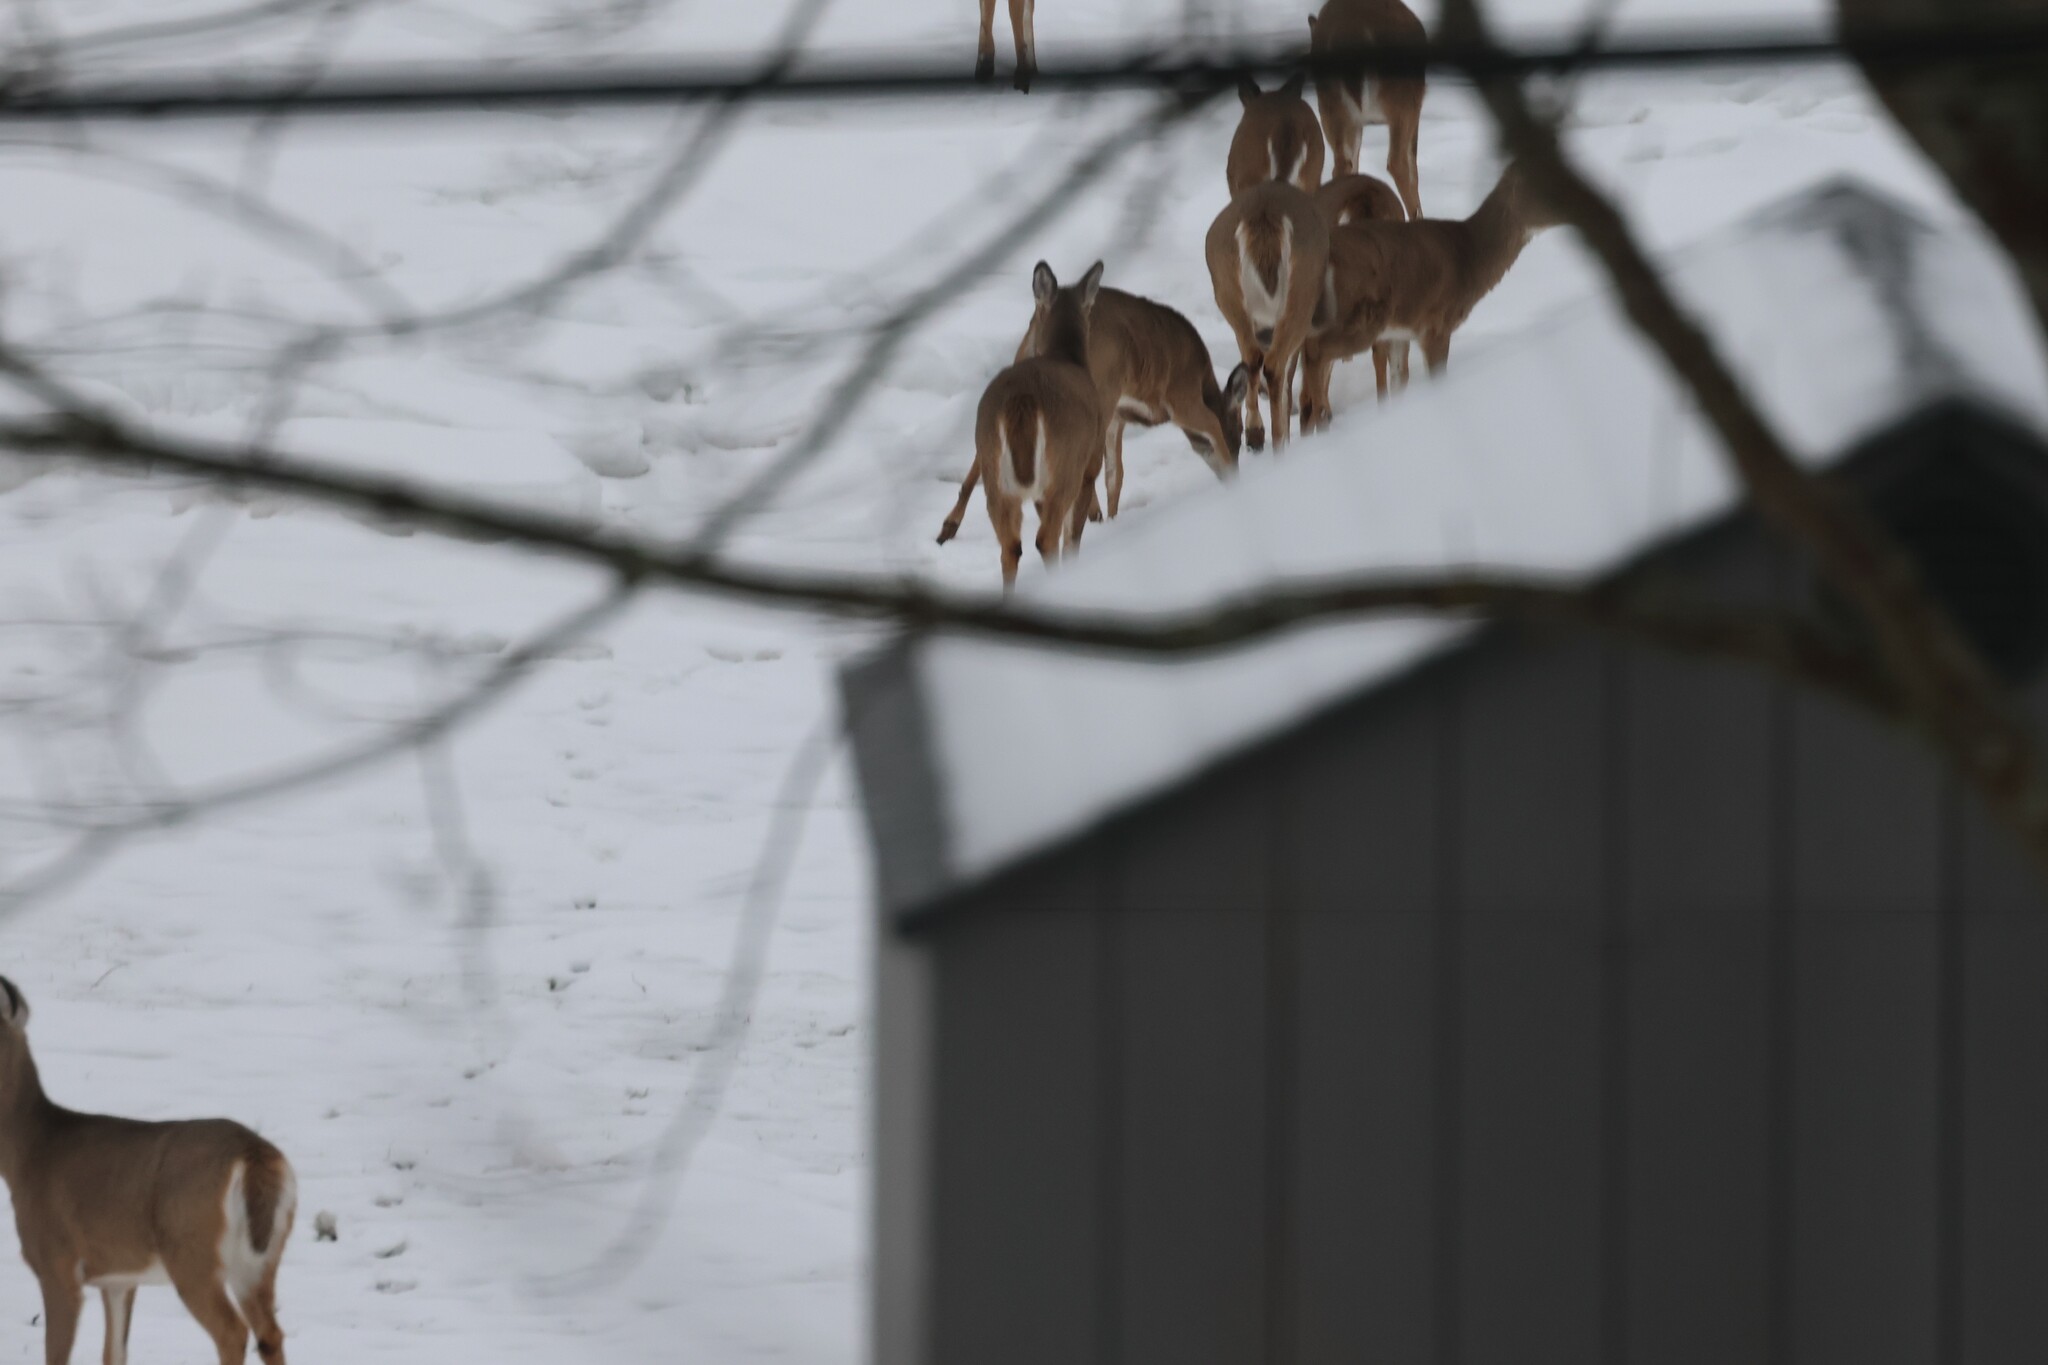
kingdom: Animalia
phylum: Chordata
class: Mammalia
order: Artiodactyla
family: Cervidae
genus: Odocoileus
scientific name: Odocoileus virginianus
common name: White-tailed deer
